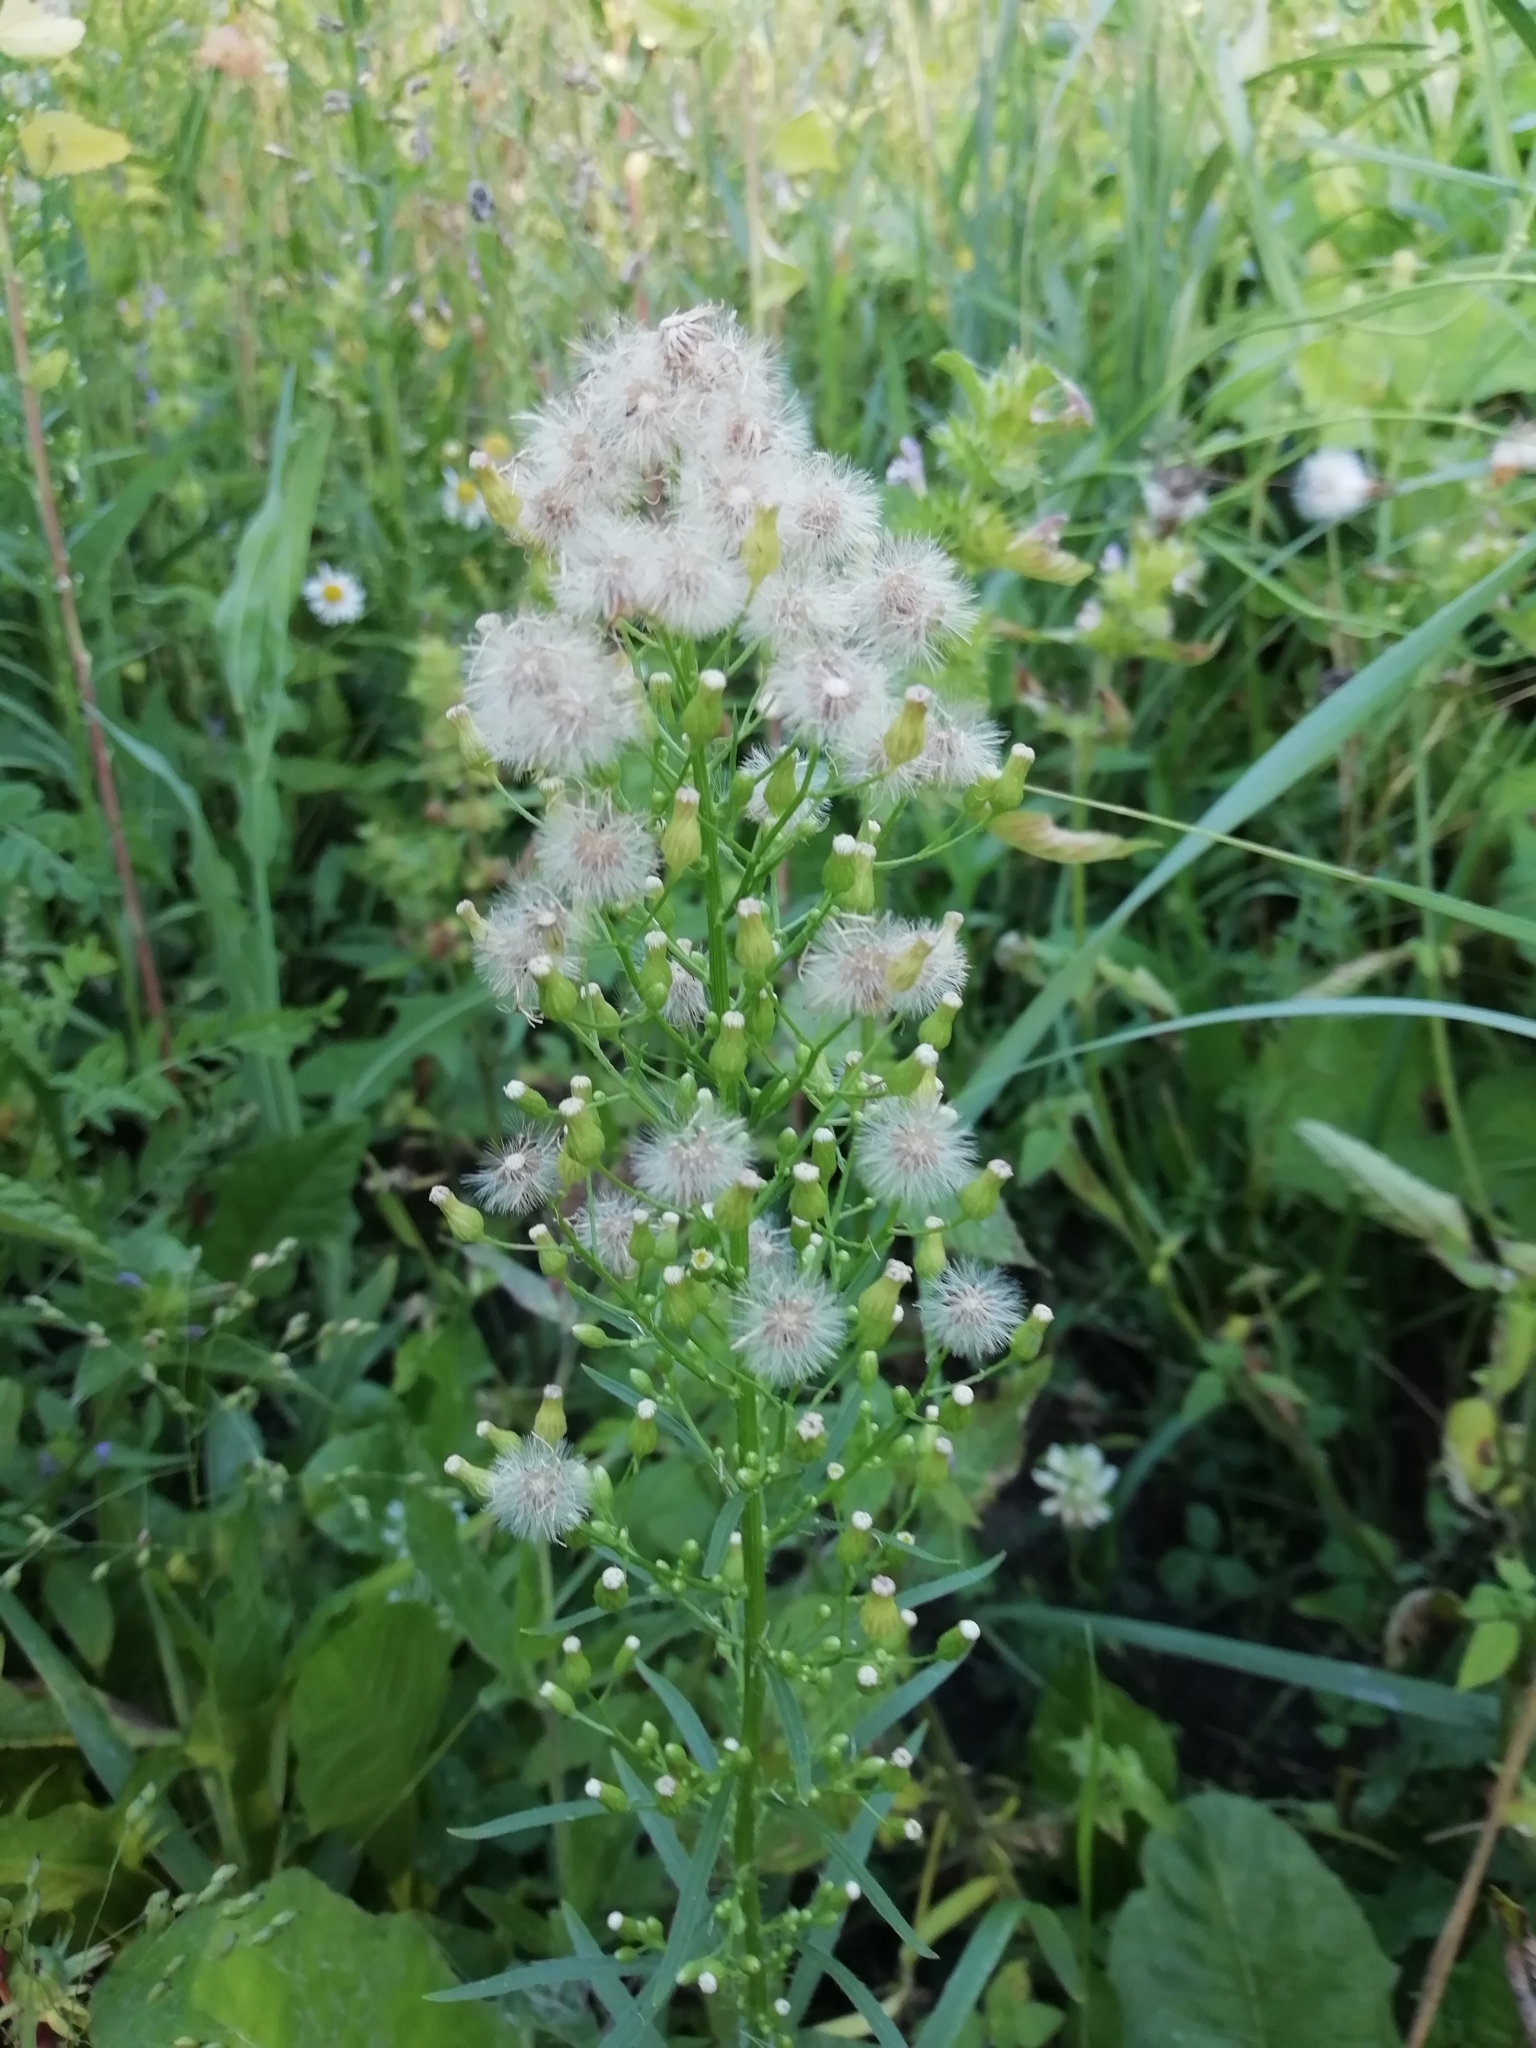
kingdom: Plantae
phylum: Tracheophyta
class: Magnoliopsida
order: Asterales
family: Asteraceae
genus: Erigeron
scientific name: Erigeron canadensis
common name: Canadian fleabane
